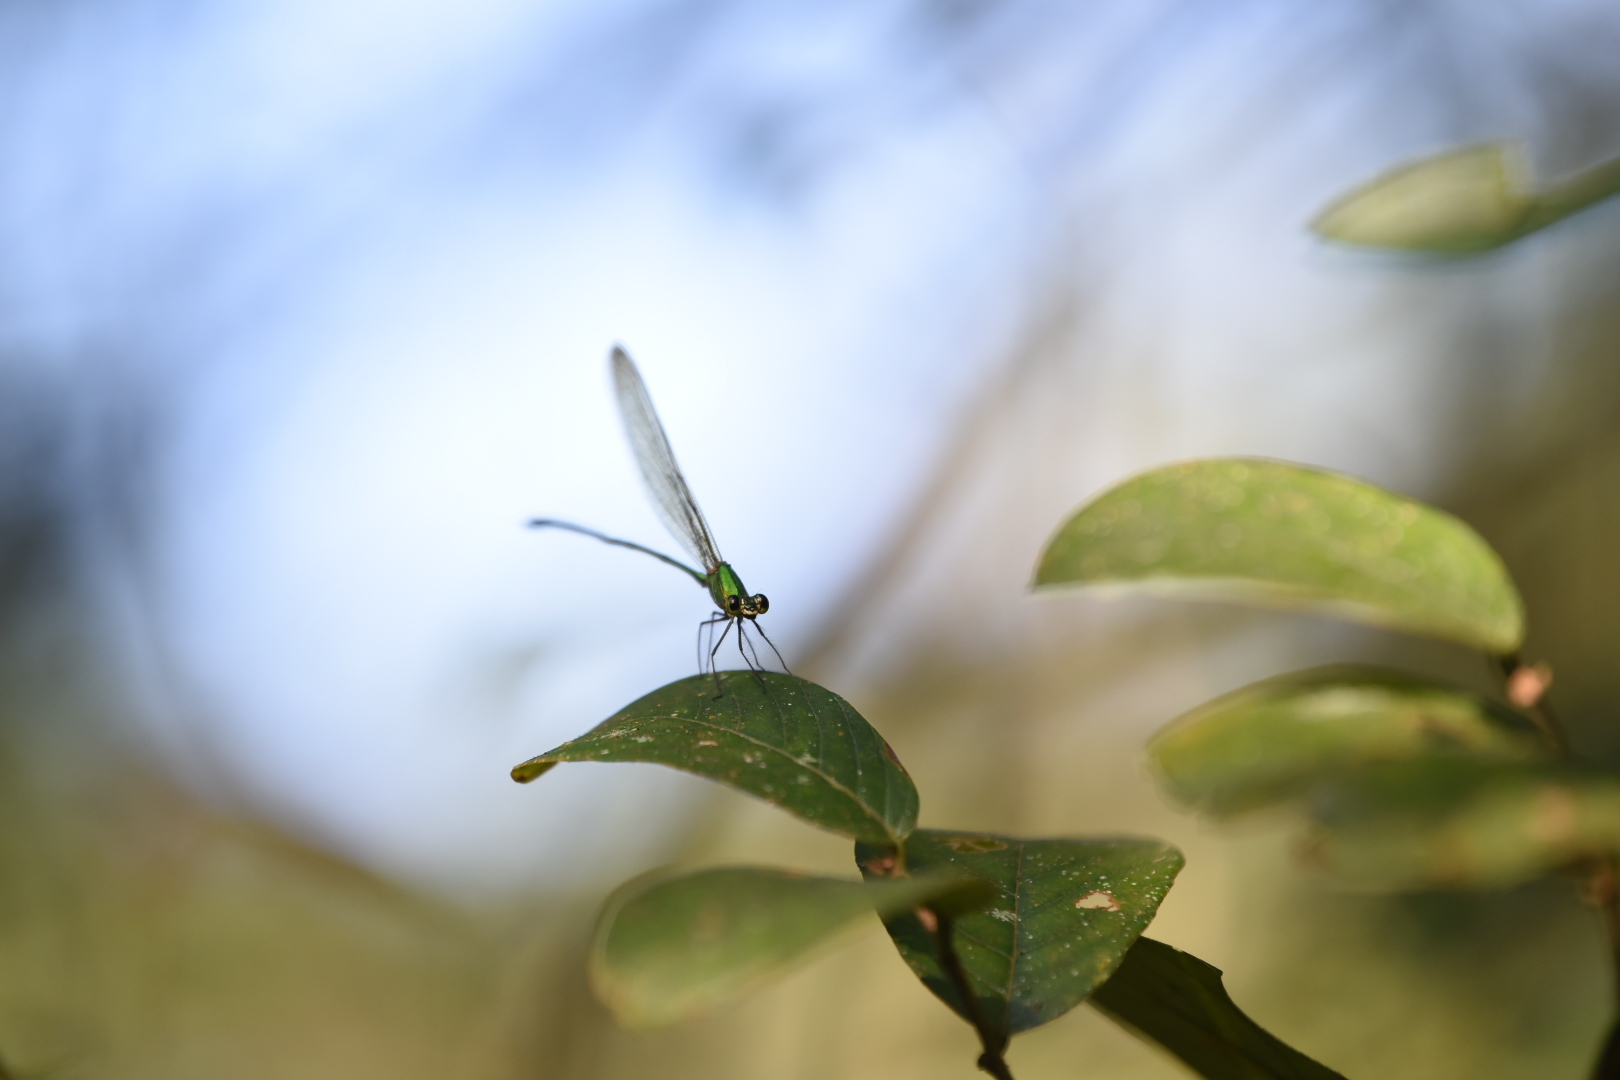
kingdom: Animalia
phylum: Arthropoda
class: Insecta
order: Odonata
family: Calopterygidae
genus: Vestalis
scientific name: Vestalis gracilis
